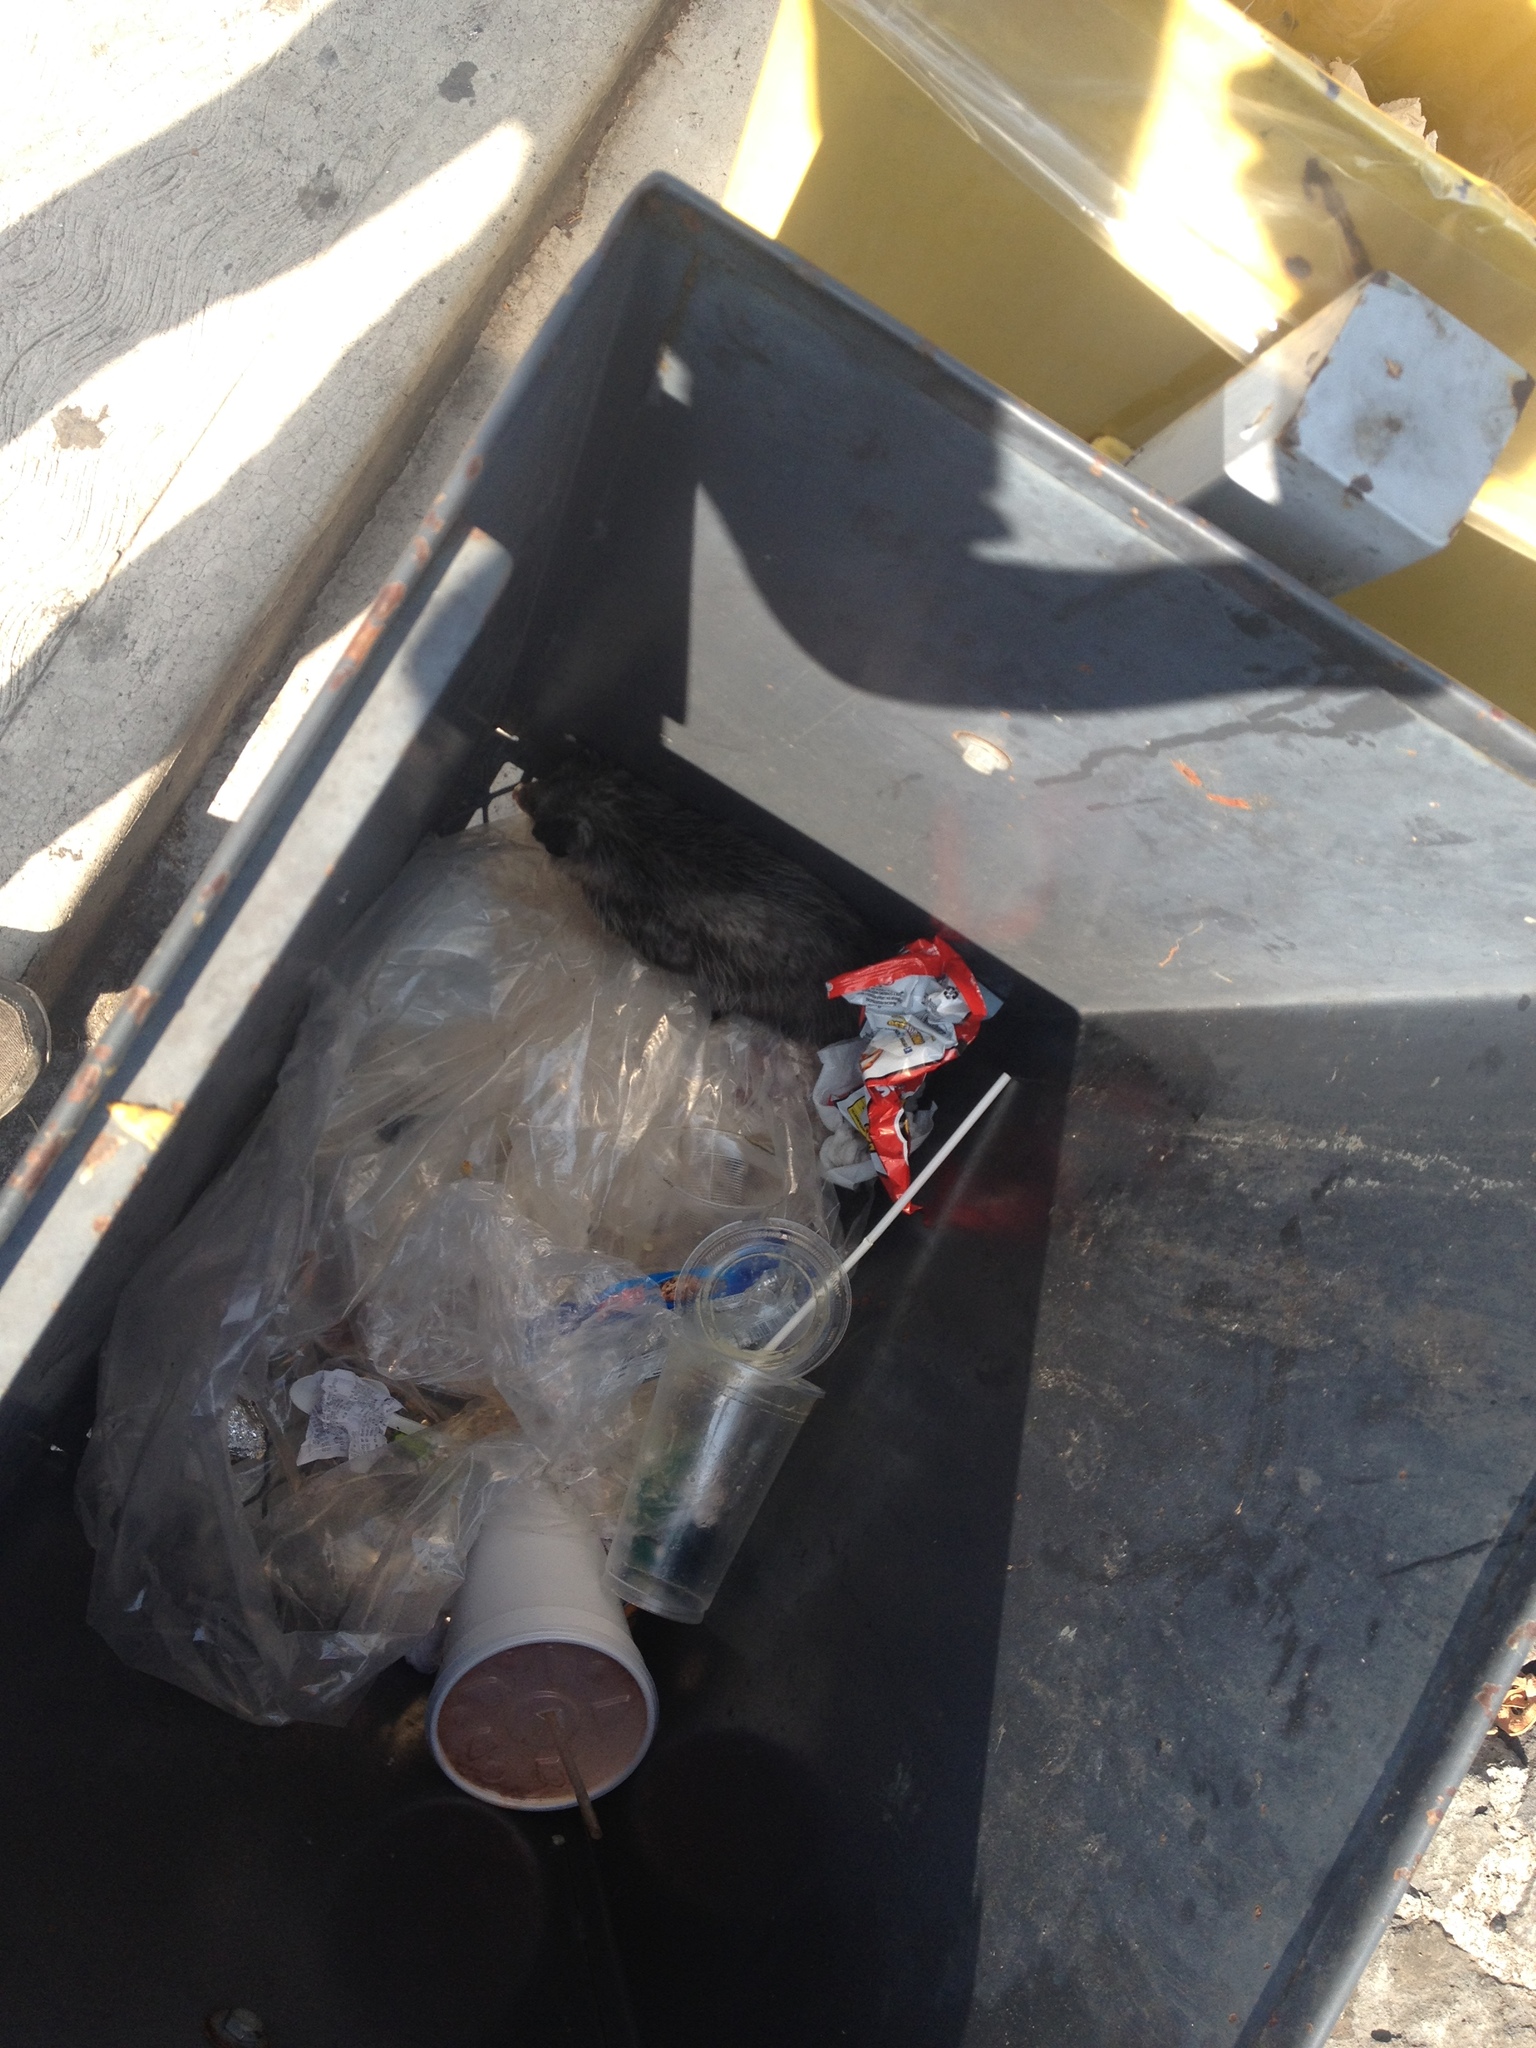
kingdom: Animalia
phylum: Chordata
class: Mammalia
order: Didelphimorphia
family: Didelphidae
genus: Didelphis
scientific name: Didelphis virginiana
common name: Virginia opossum
